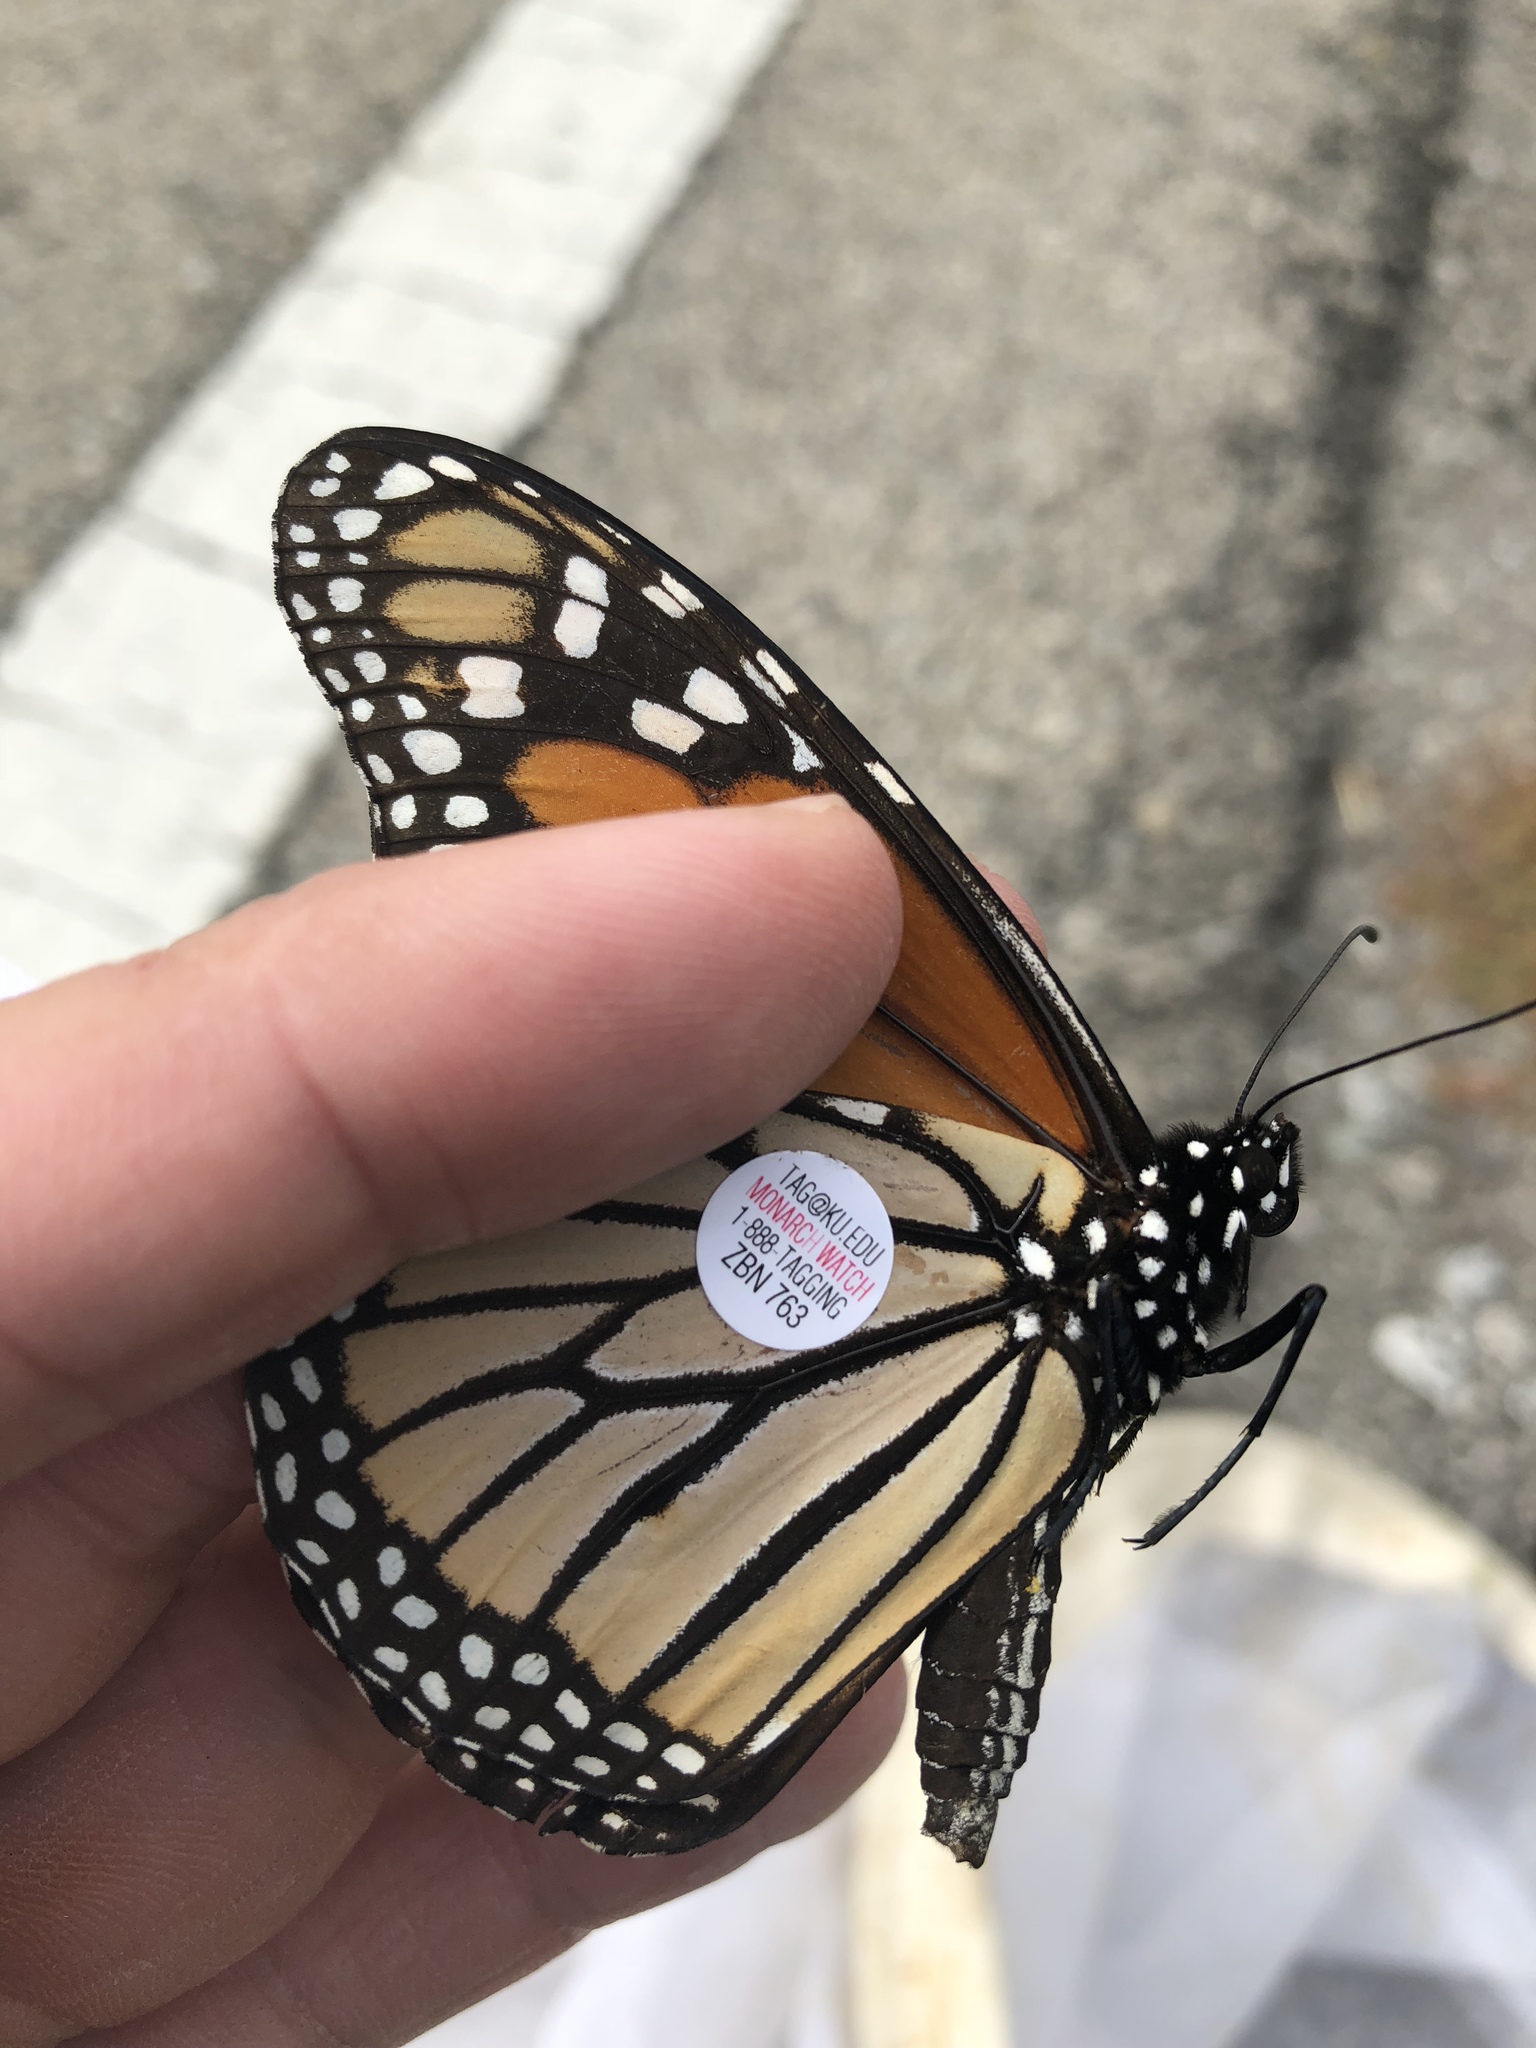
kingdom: Animalia
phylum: Arthropoda
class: Insecta
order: Lepidoptera
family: Nymphalidae
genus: Danaus
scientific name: Danaus plexippus
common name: Monarch
